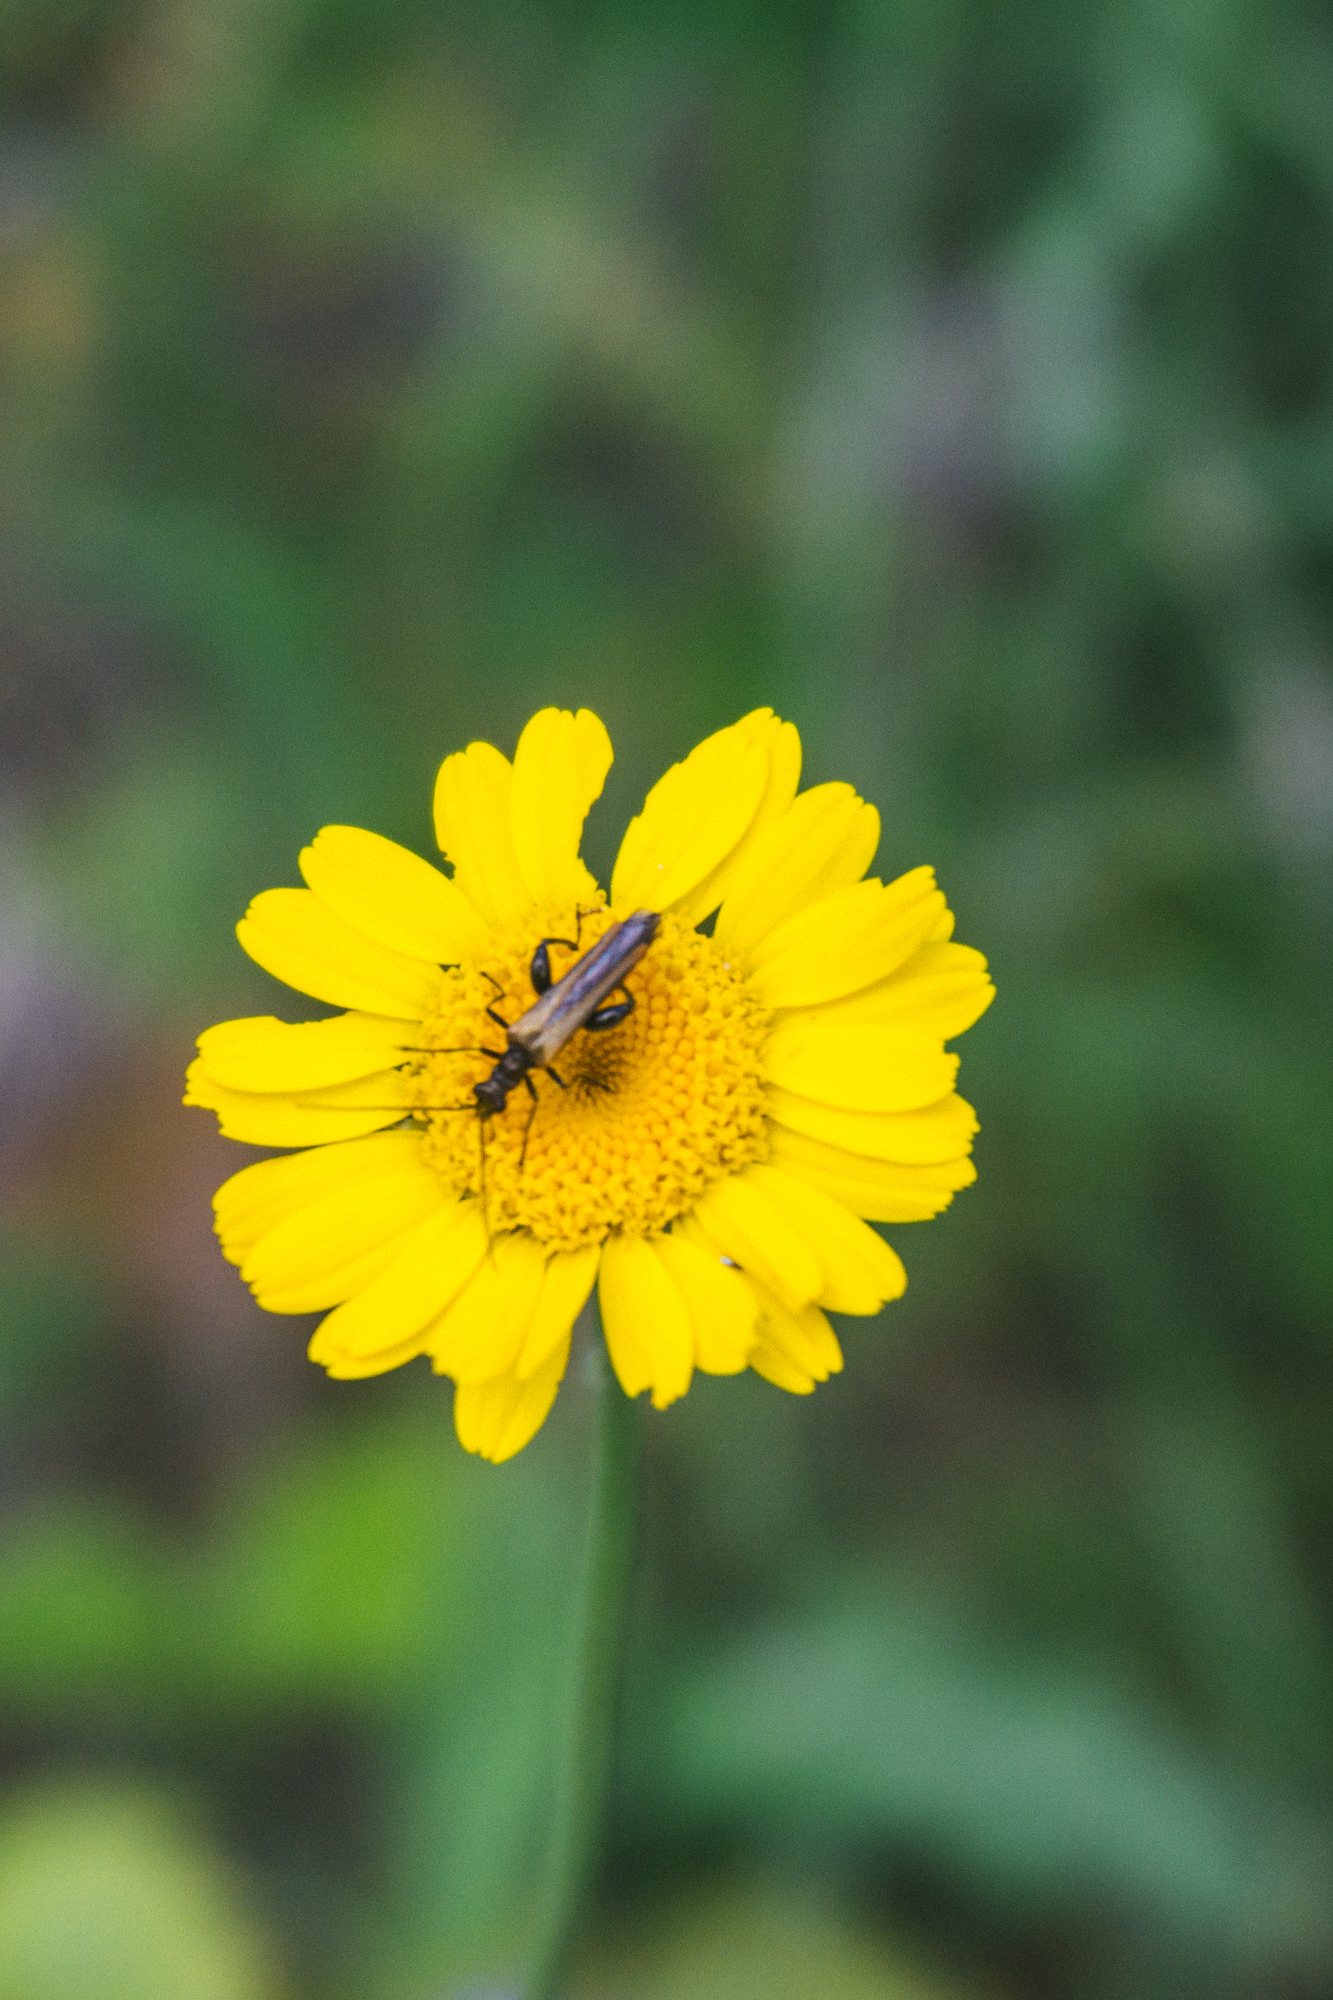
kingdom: Animalia
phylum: Arthropoda
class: Insecta
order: Coleoptera
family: Oedemeridae
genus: Oedemera
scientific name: Oedemera femorata
